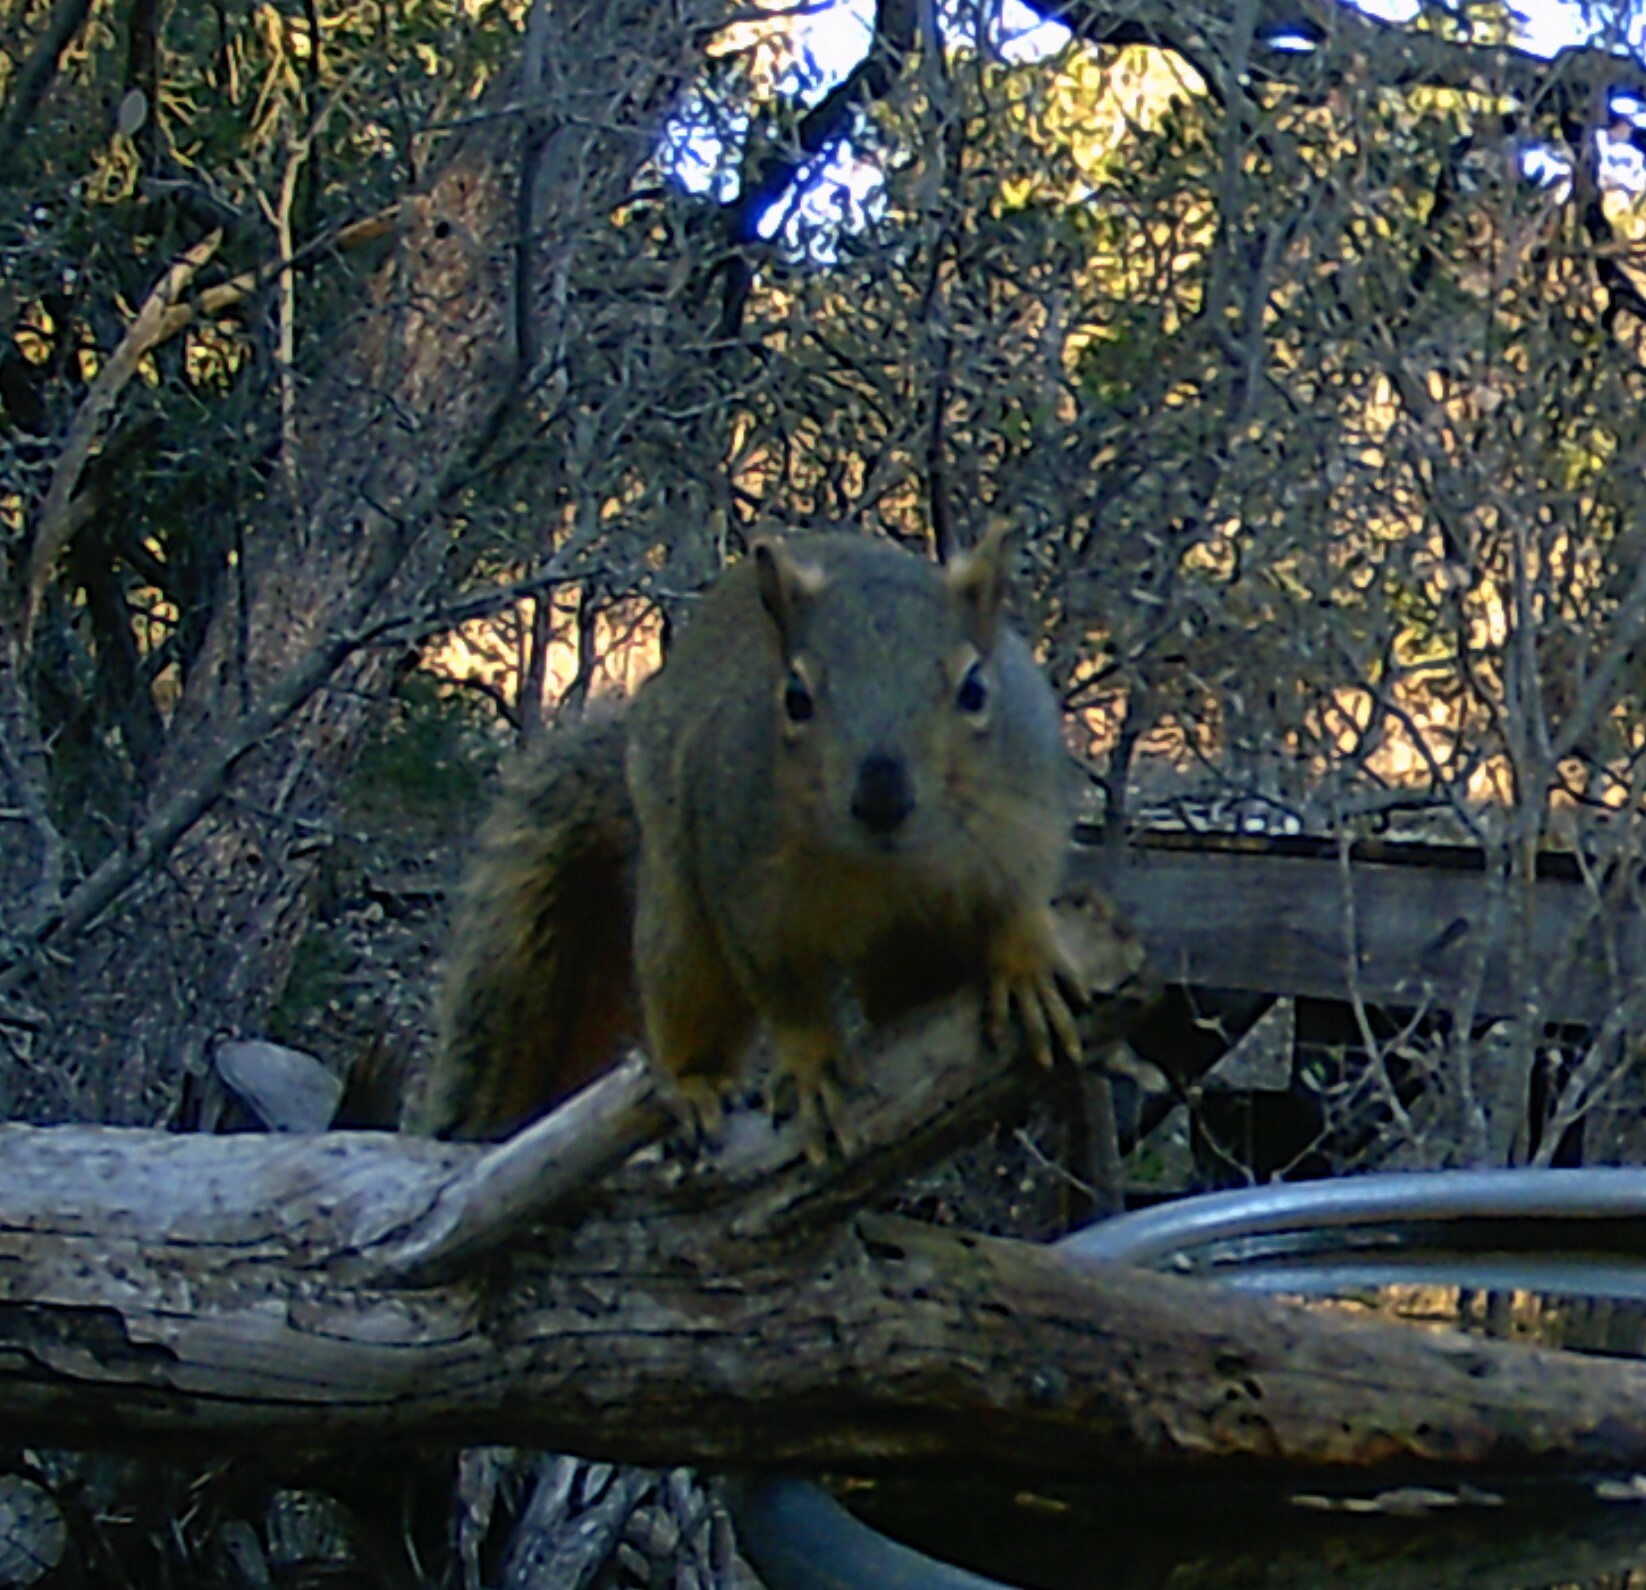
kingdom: Animalia
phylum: Chordata
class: Mammalia
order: Rodentia
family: Sciuridae
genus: Sciurus
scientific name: Sciurus niger
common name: Fox squirrel
